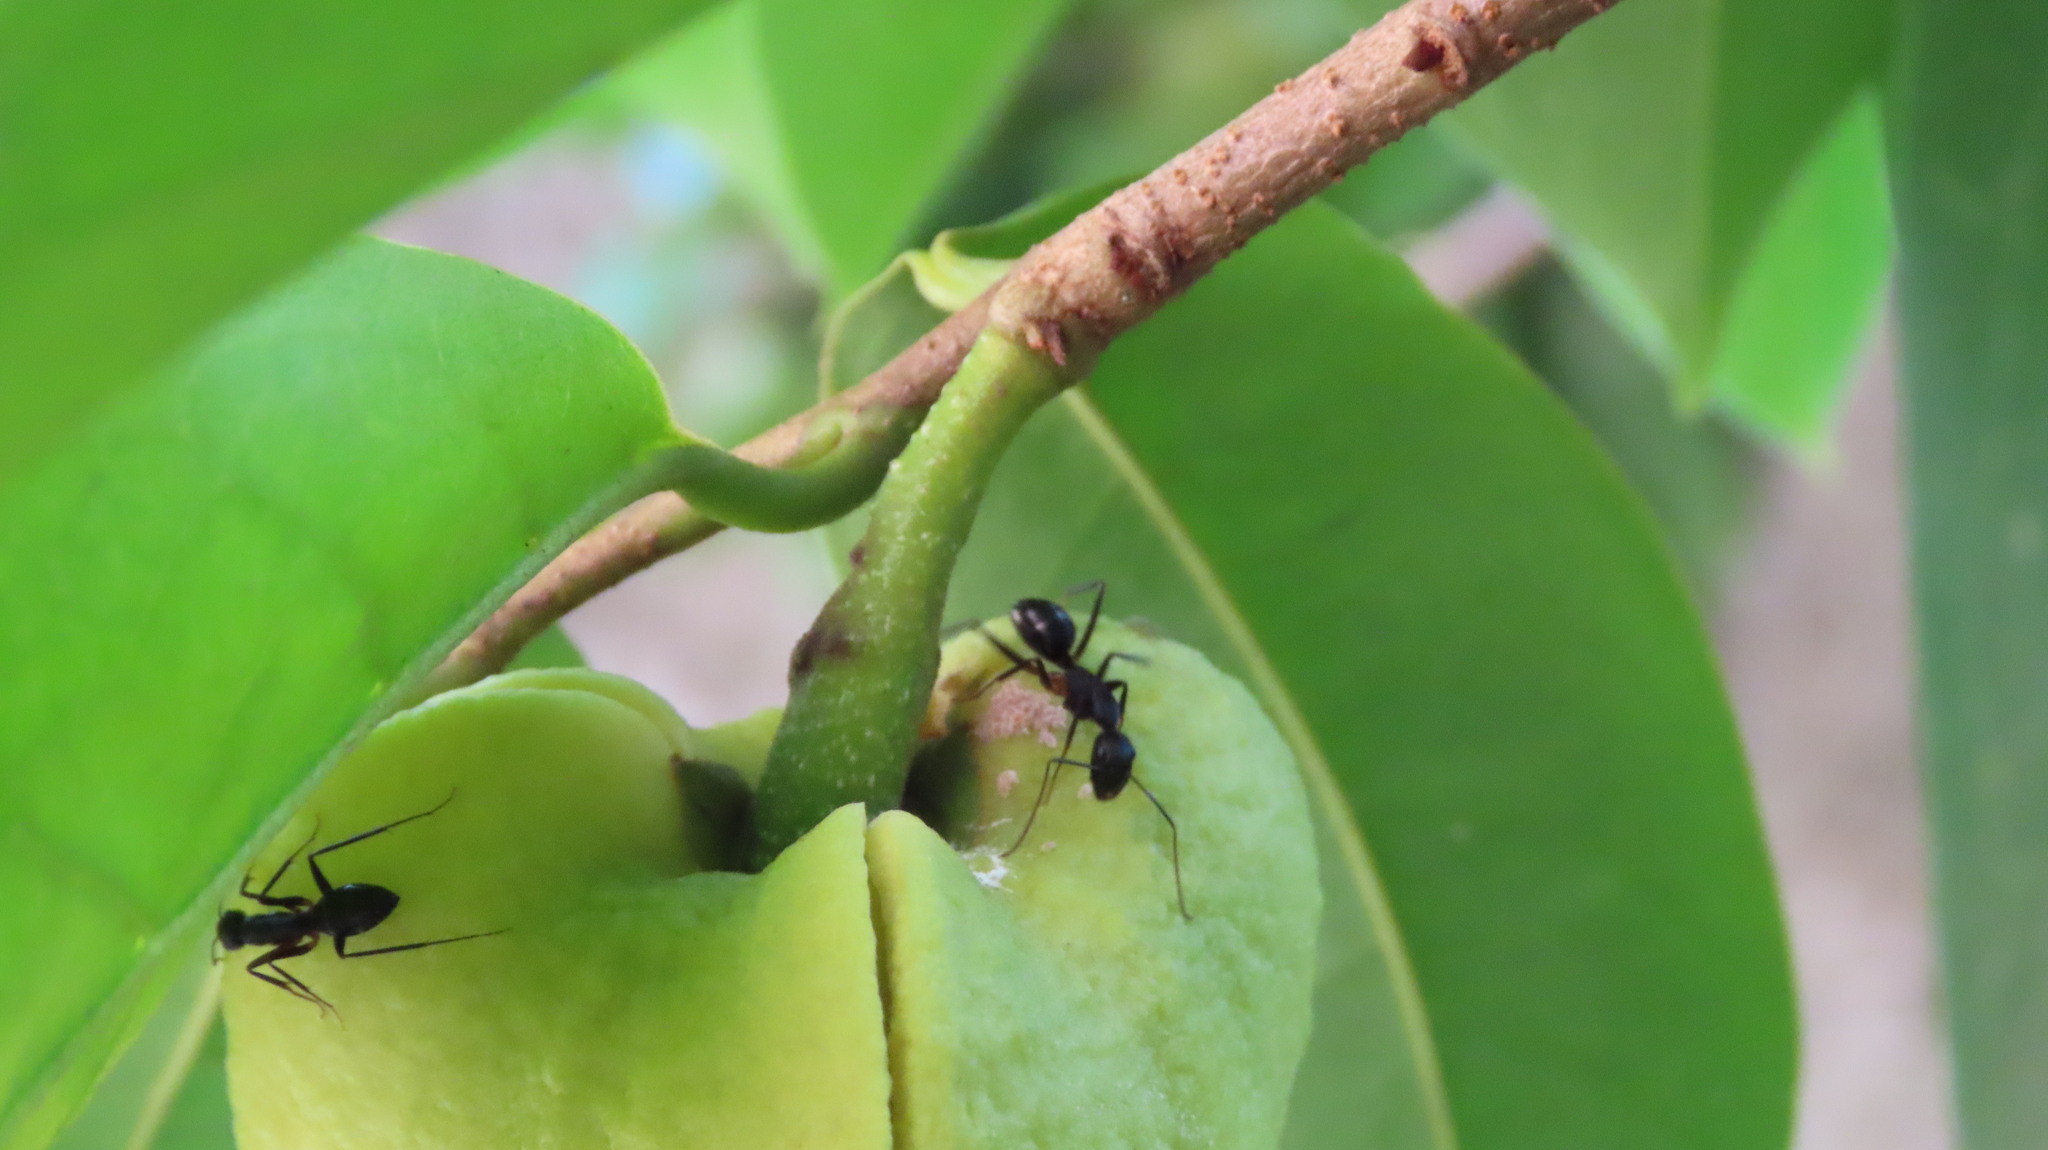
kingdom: Animalia
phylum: Arthropoda
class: Insecta
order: Hymenoptera
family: Formicidae
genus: Camponotus
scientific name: Camponotus compressus
